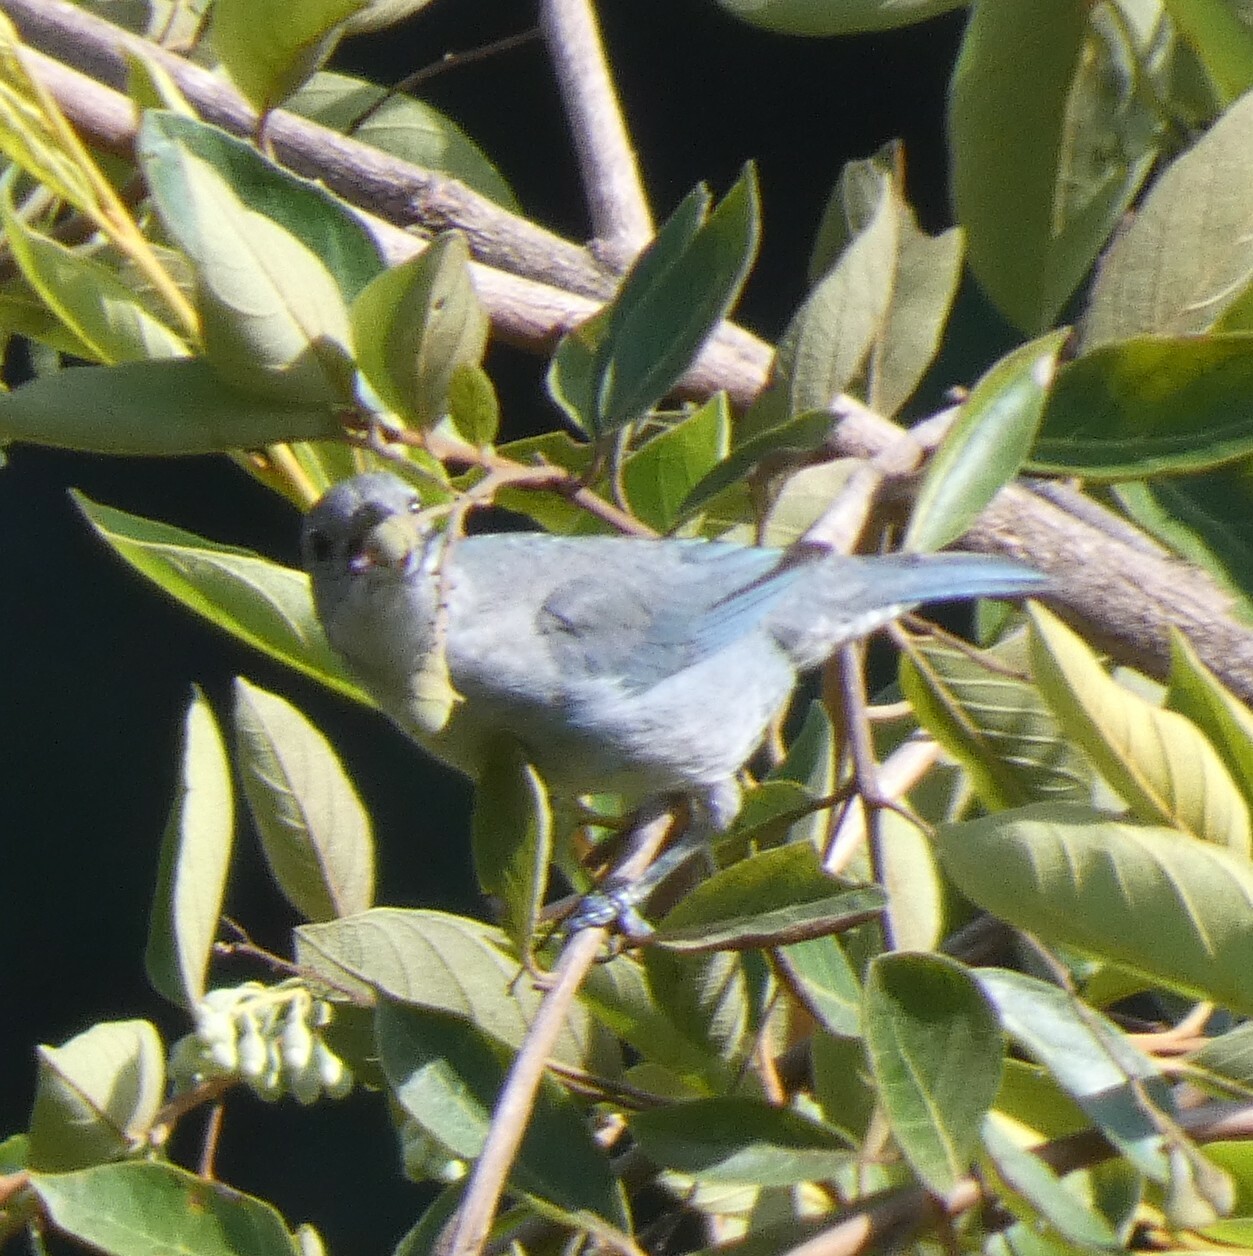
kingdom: Animalia
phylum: Chordata
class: Aves
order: Passeriformes
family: Thraupidae
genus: Thraupis
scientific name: Thraupis sayaca
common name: Sayaca tanager
